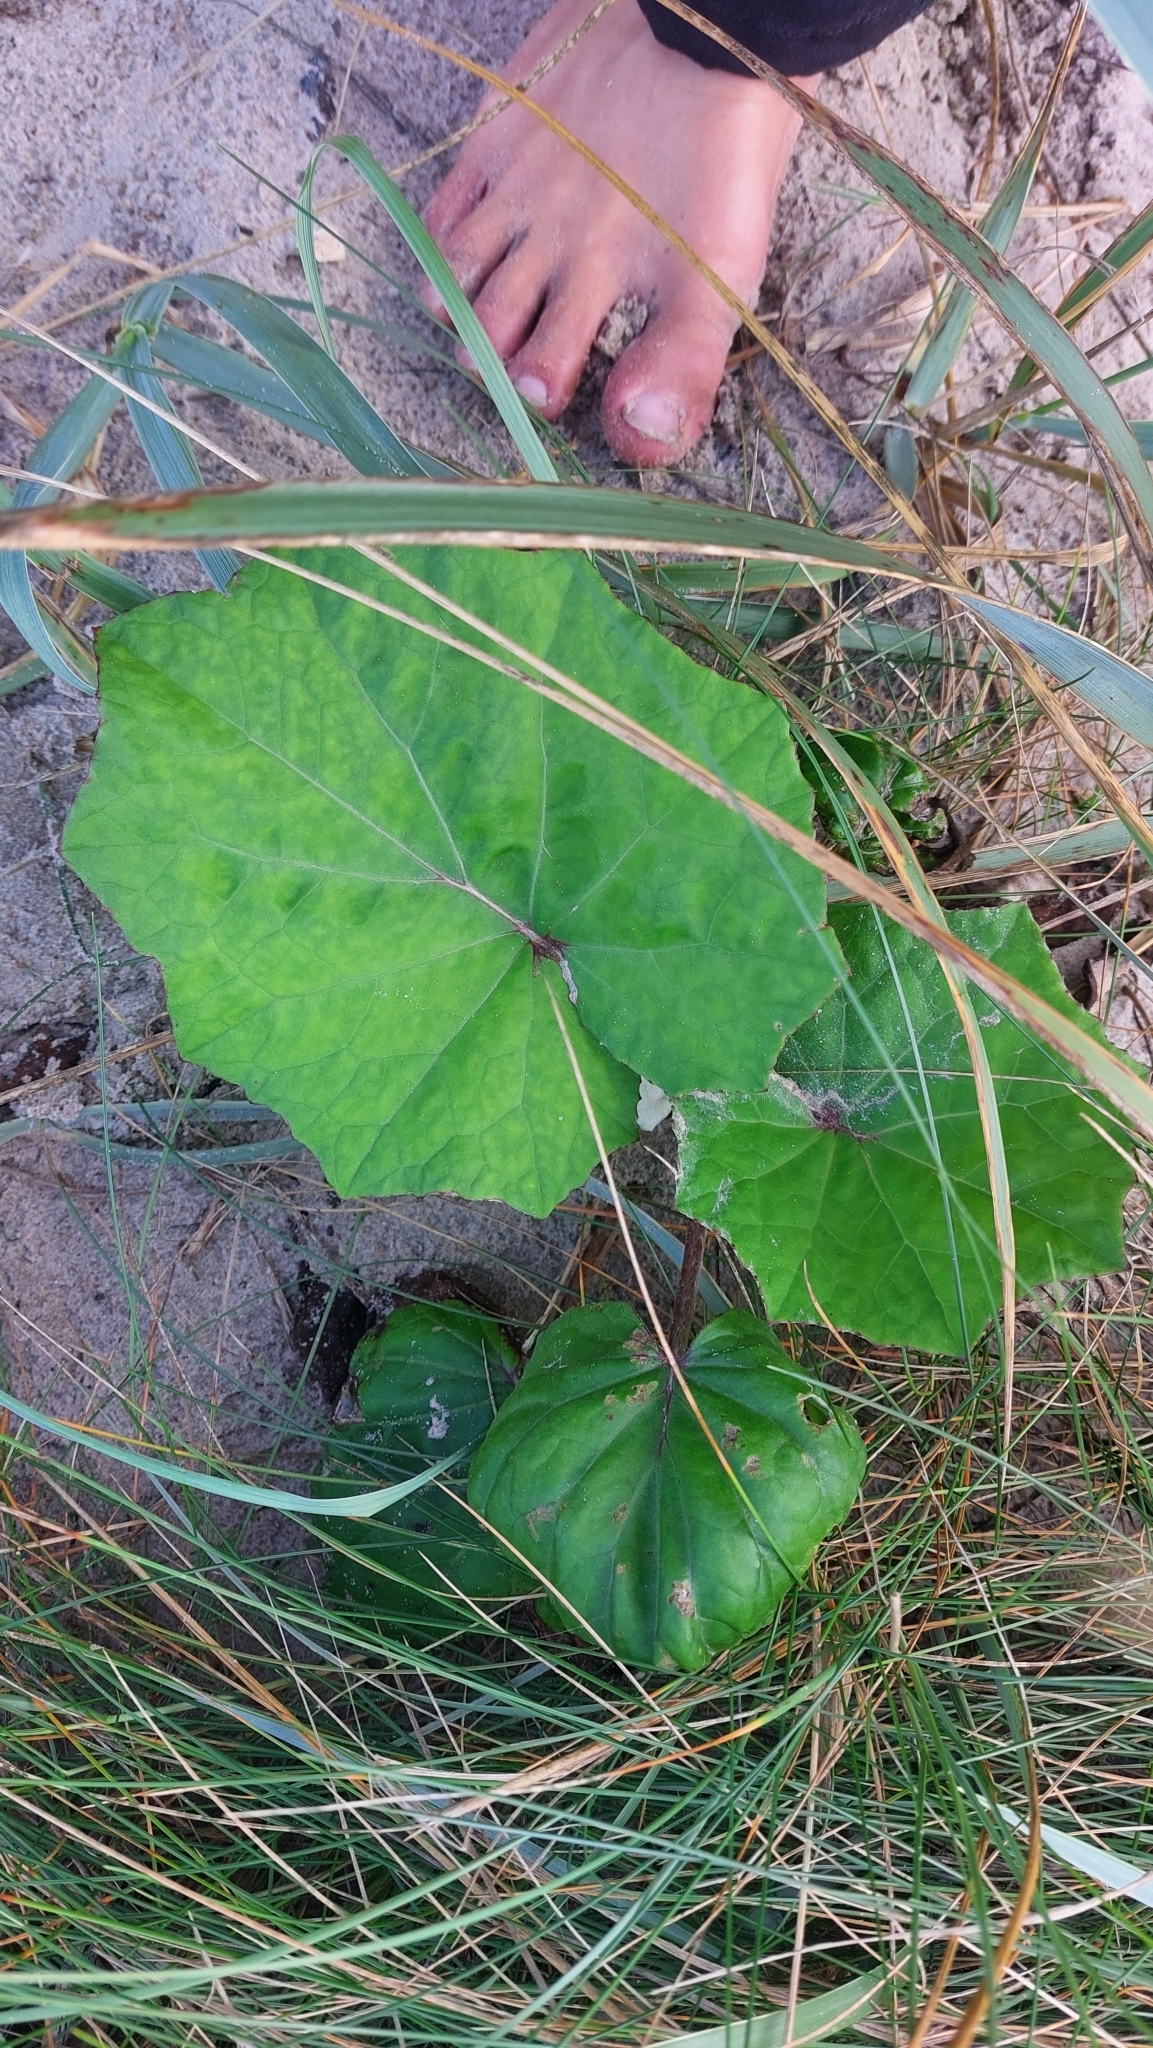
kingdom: Plantae
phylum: Tracheophyta
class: Magnoliopsida
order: Asterales
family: Asteraceae
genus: Tussilago
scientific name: Tussilago farfara
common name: Coltsfoot
